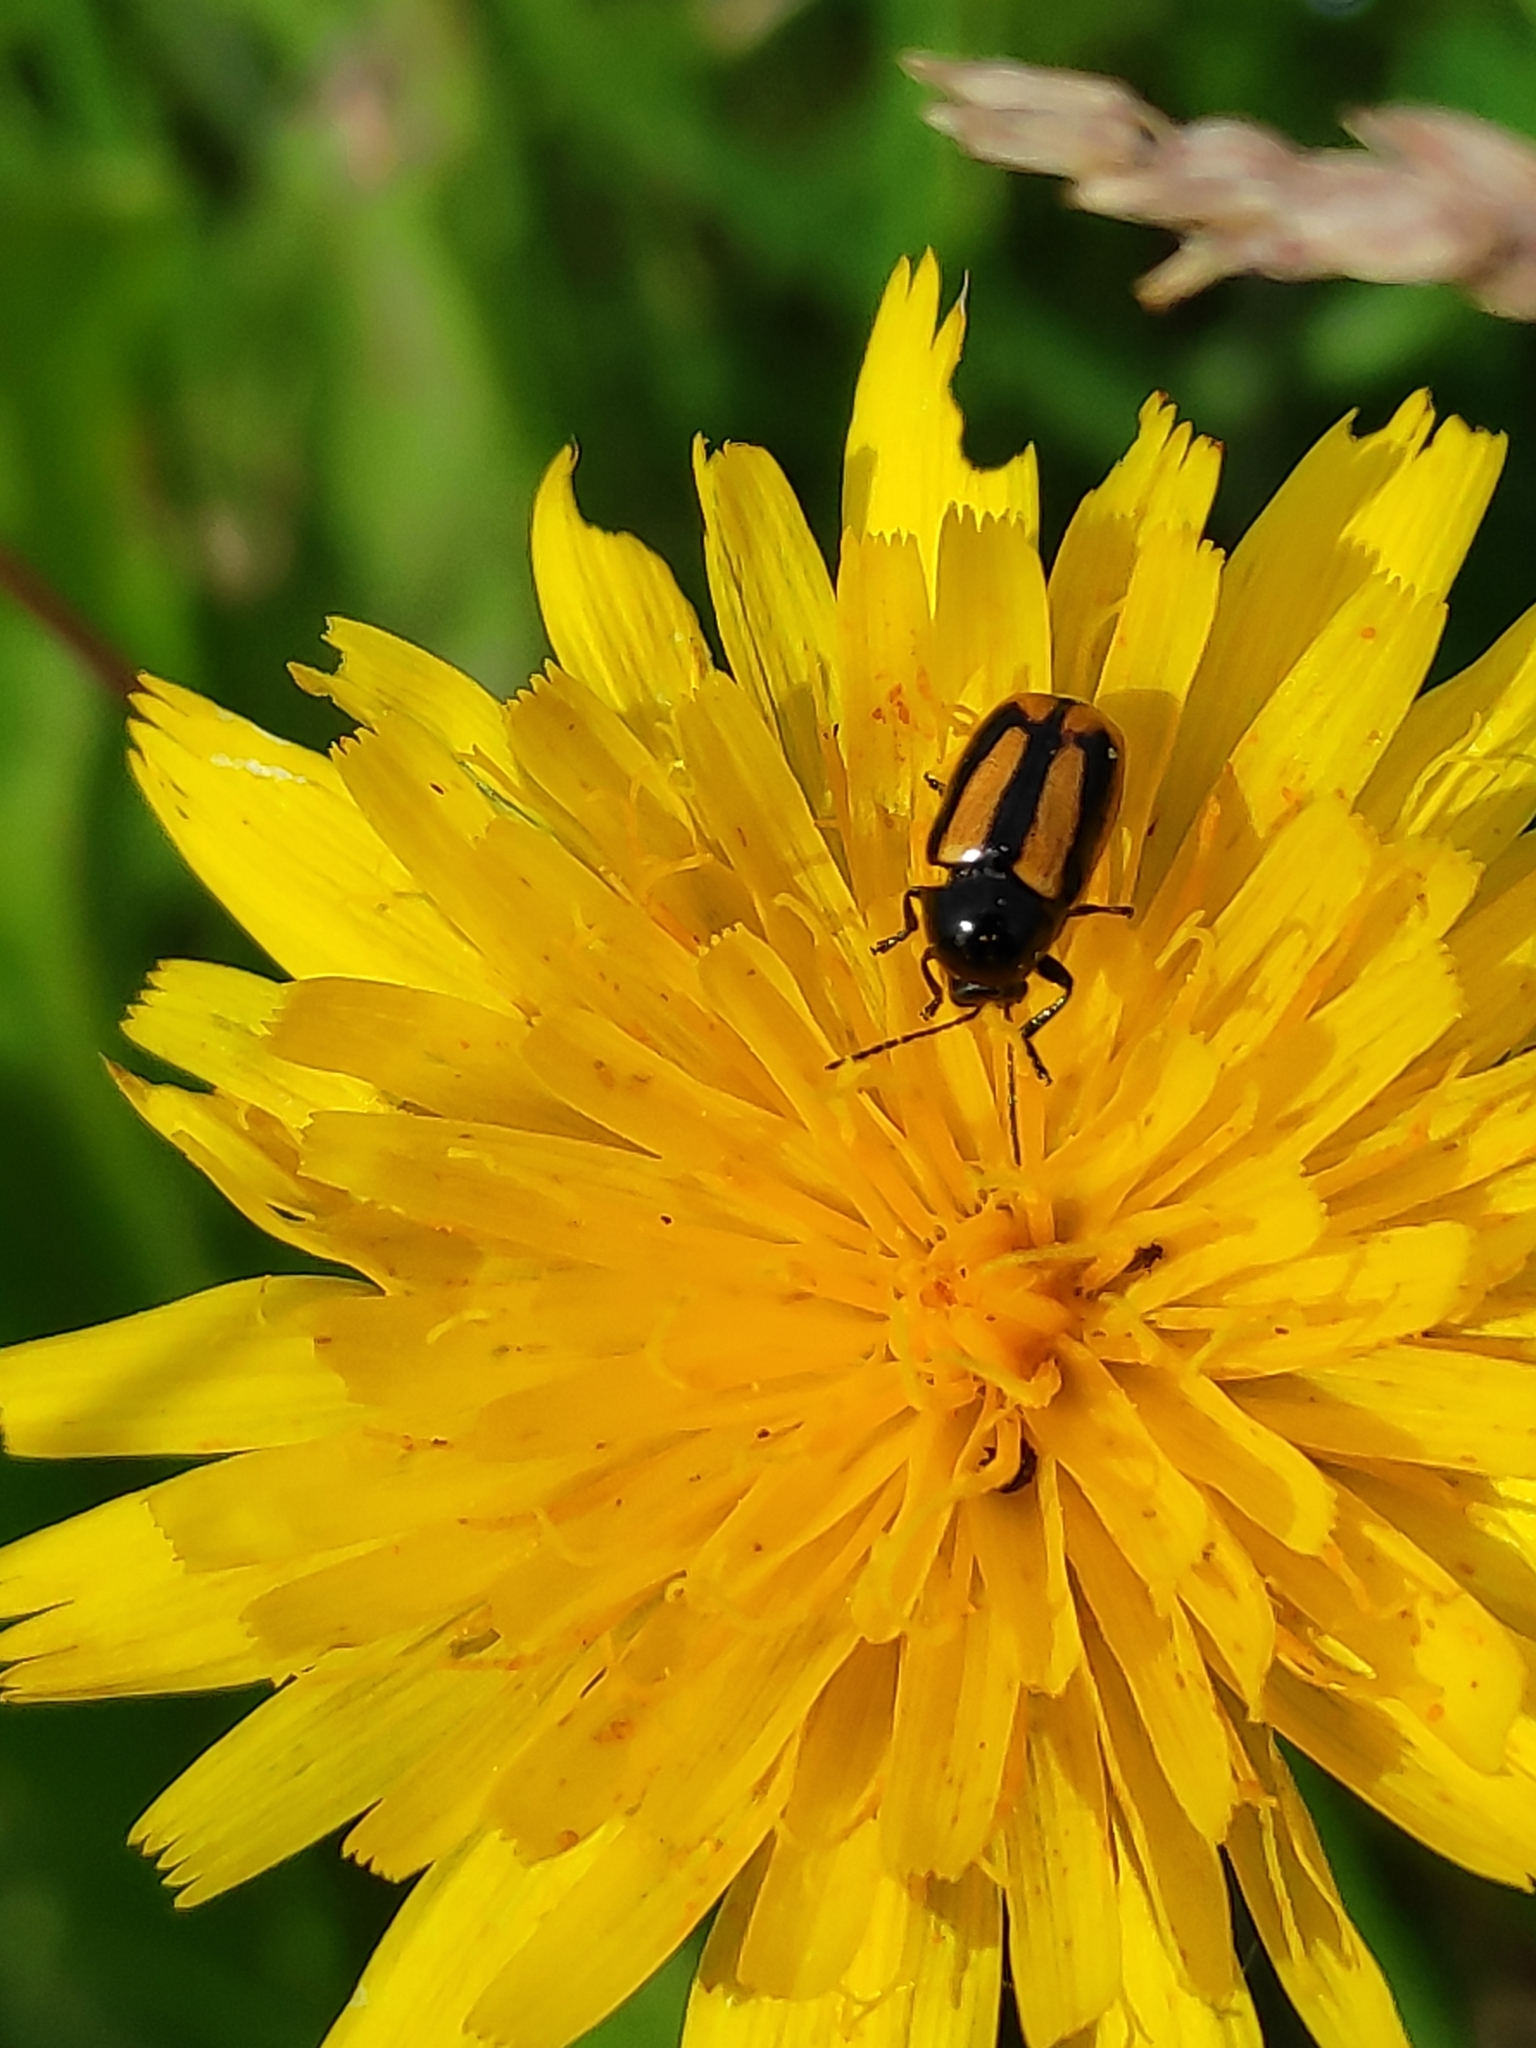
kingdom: Animalia
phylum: Arthropoda
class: Insecta
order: Coleoptera
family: Chrysomelidae
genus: Acalymma
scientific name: Acalymma vittatum
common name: Striped cucumber beetle
